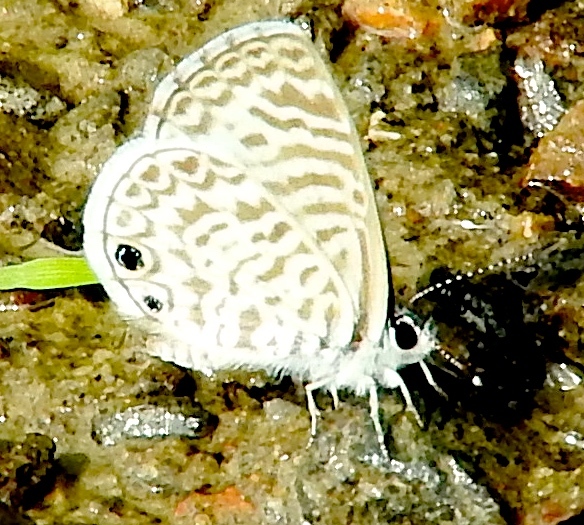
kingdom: Animalia
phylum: Arthropoda
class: Insecta
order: Lepidoptera
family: Lycaenidae
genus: Leptotes
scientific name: Leptotes cassius
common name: Cassius blue
